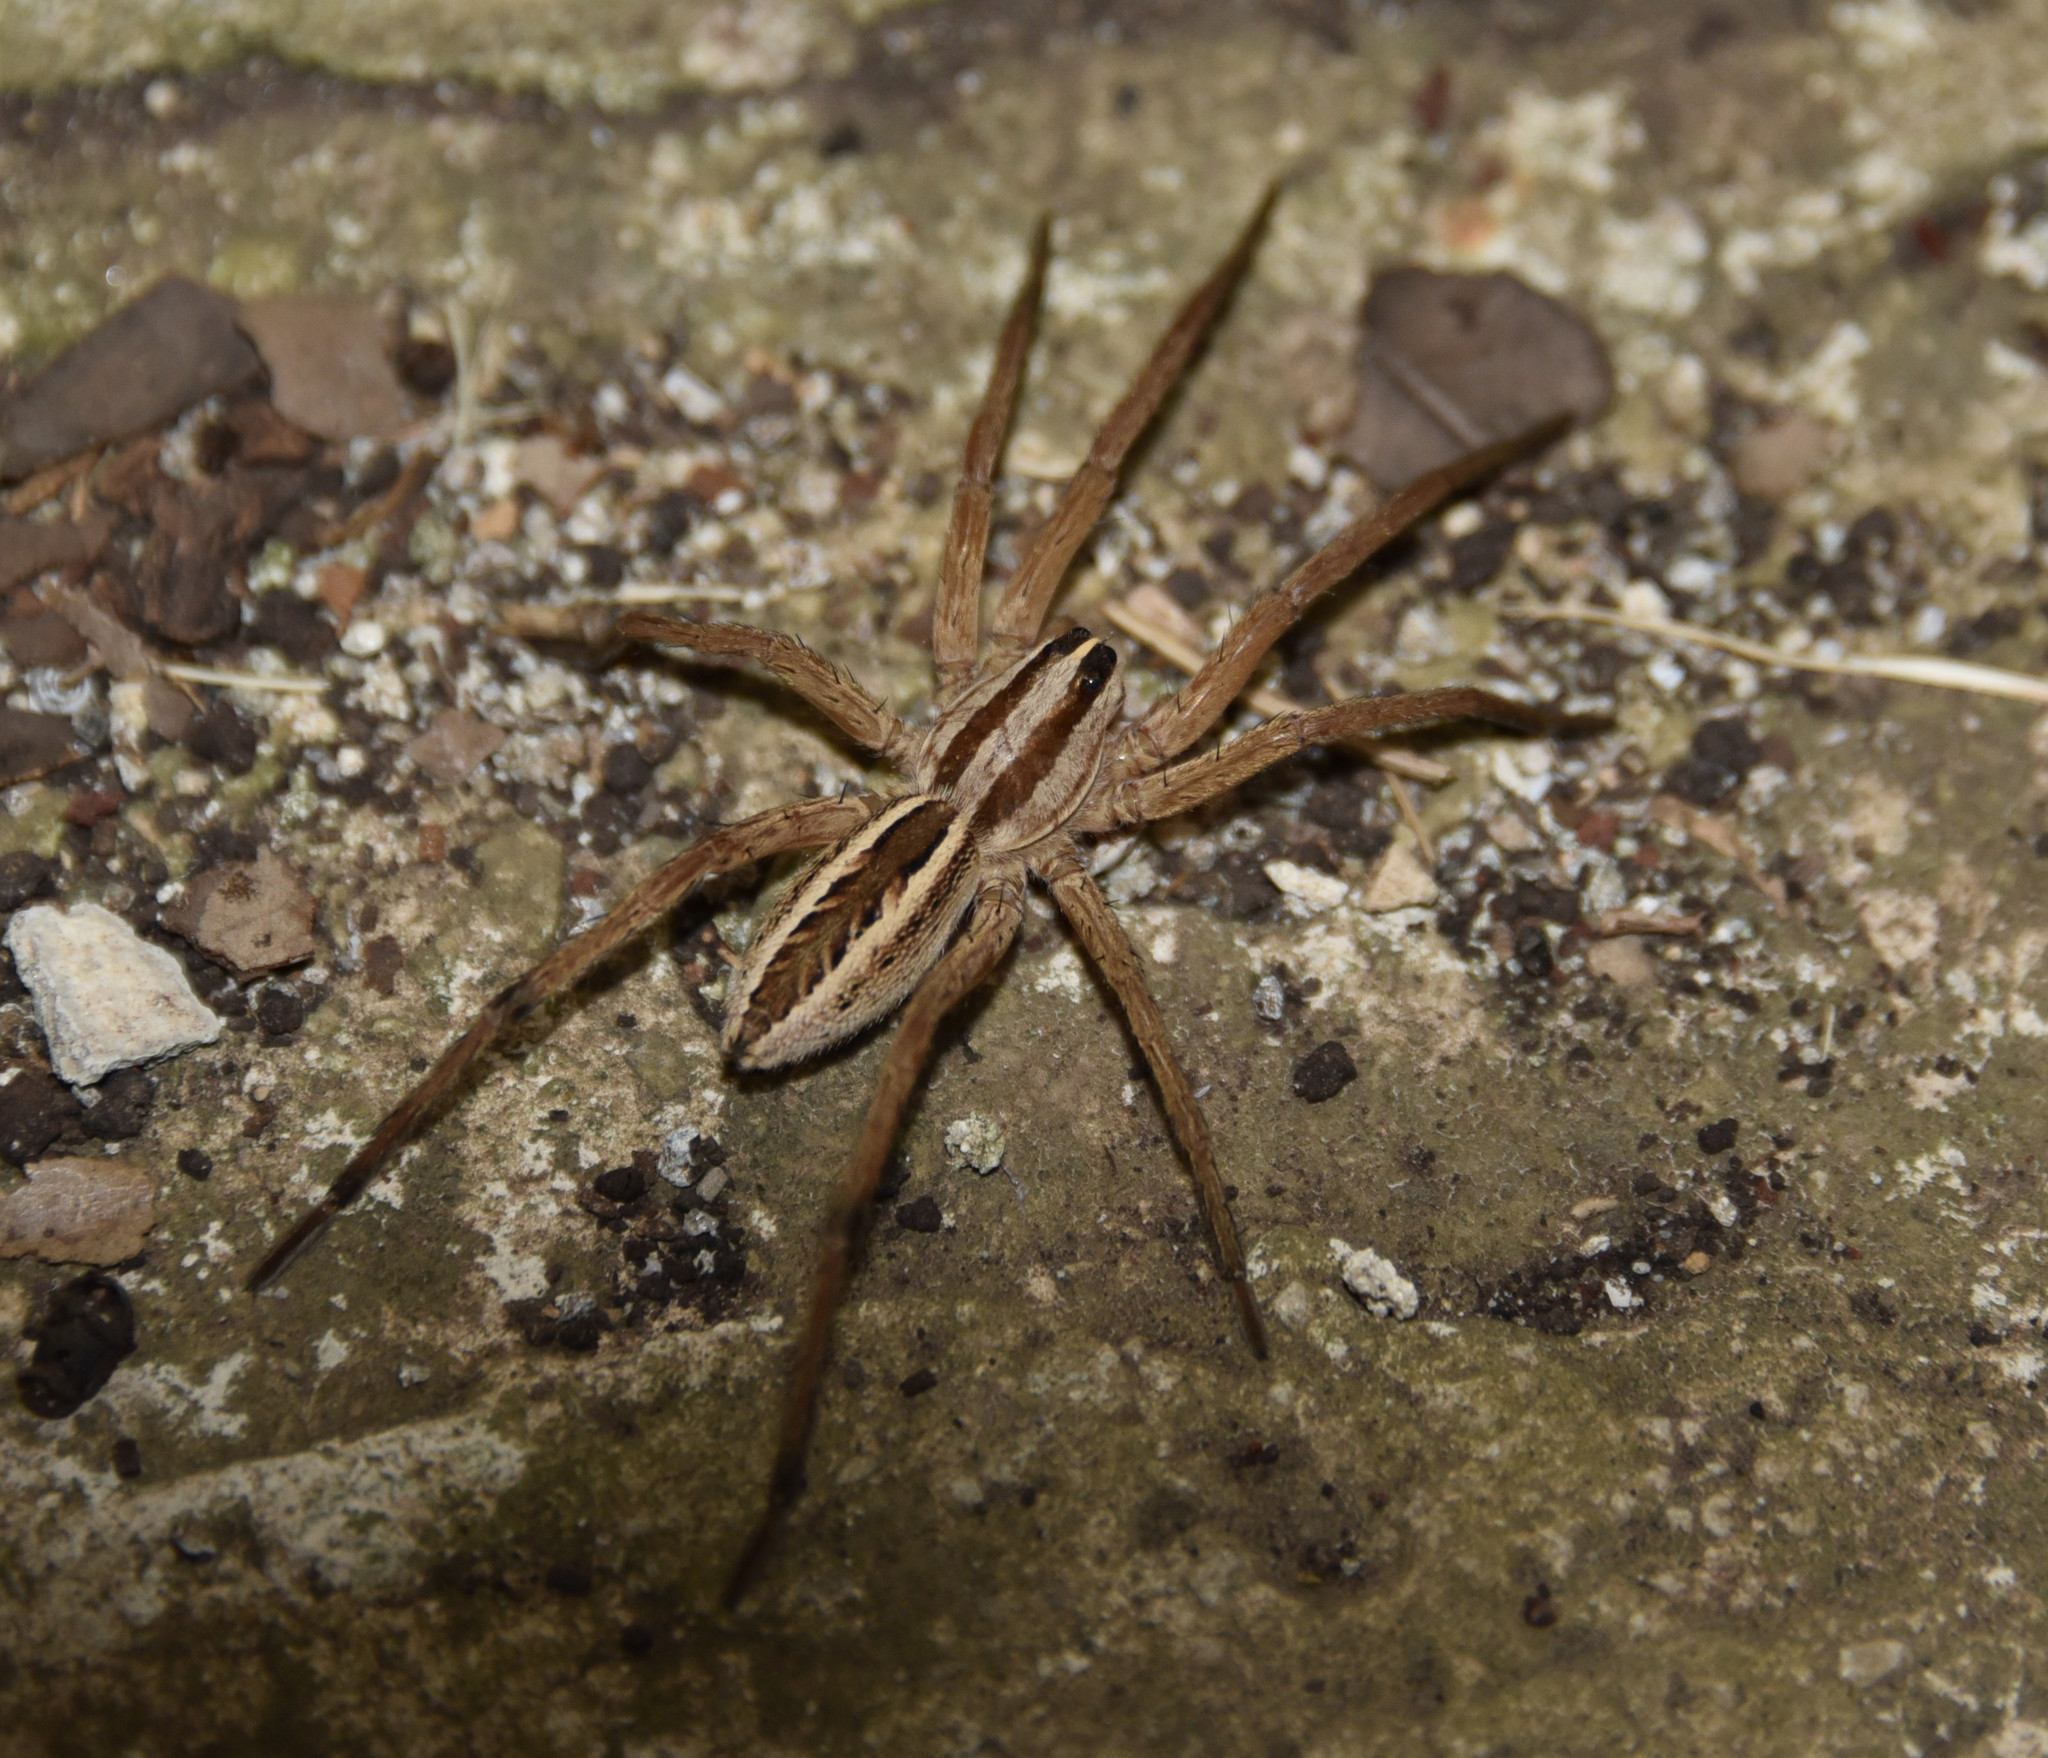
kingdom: Animalia
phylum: Arthropoda
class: Arachnida
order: Araneae
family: Lycosidae
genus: Rabidosa
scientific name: Rabidosa rabida
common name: Rabid wolf spider
